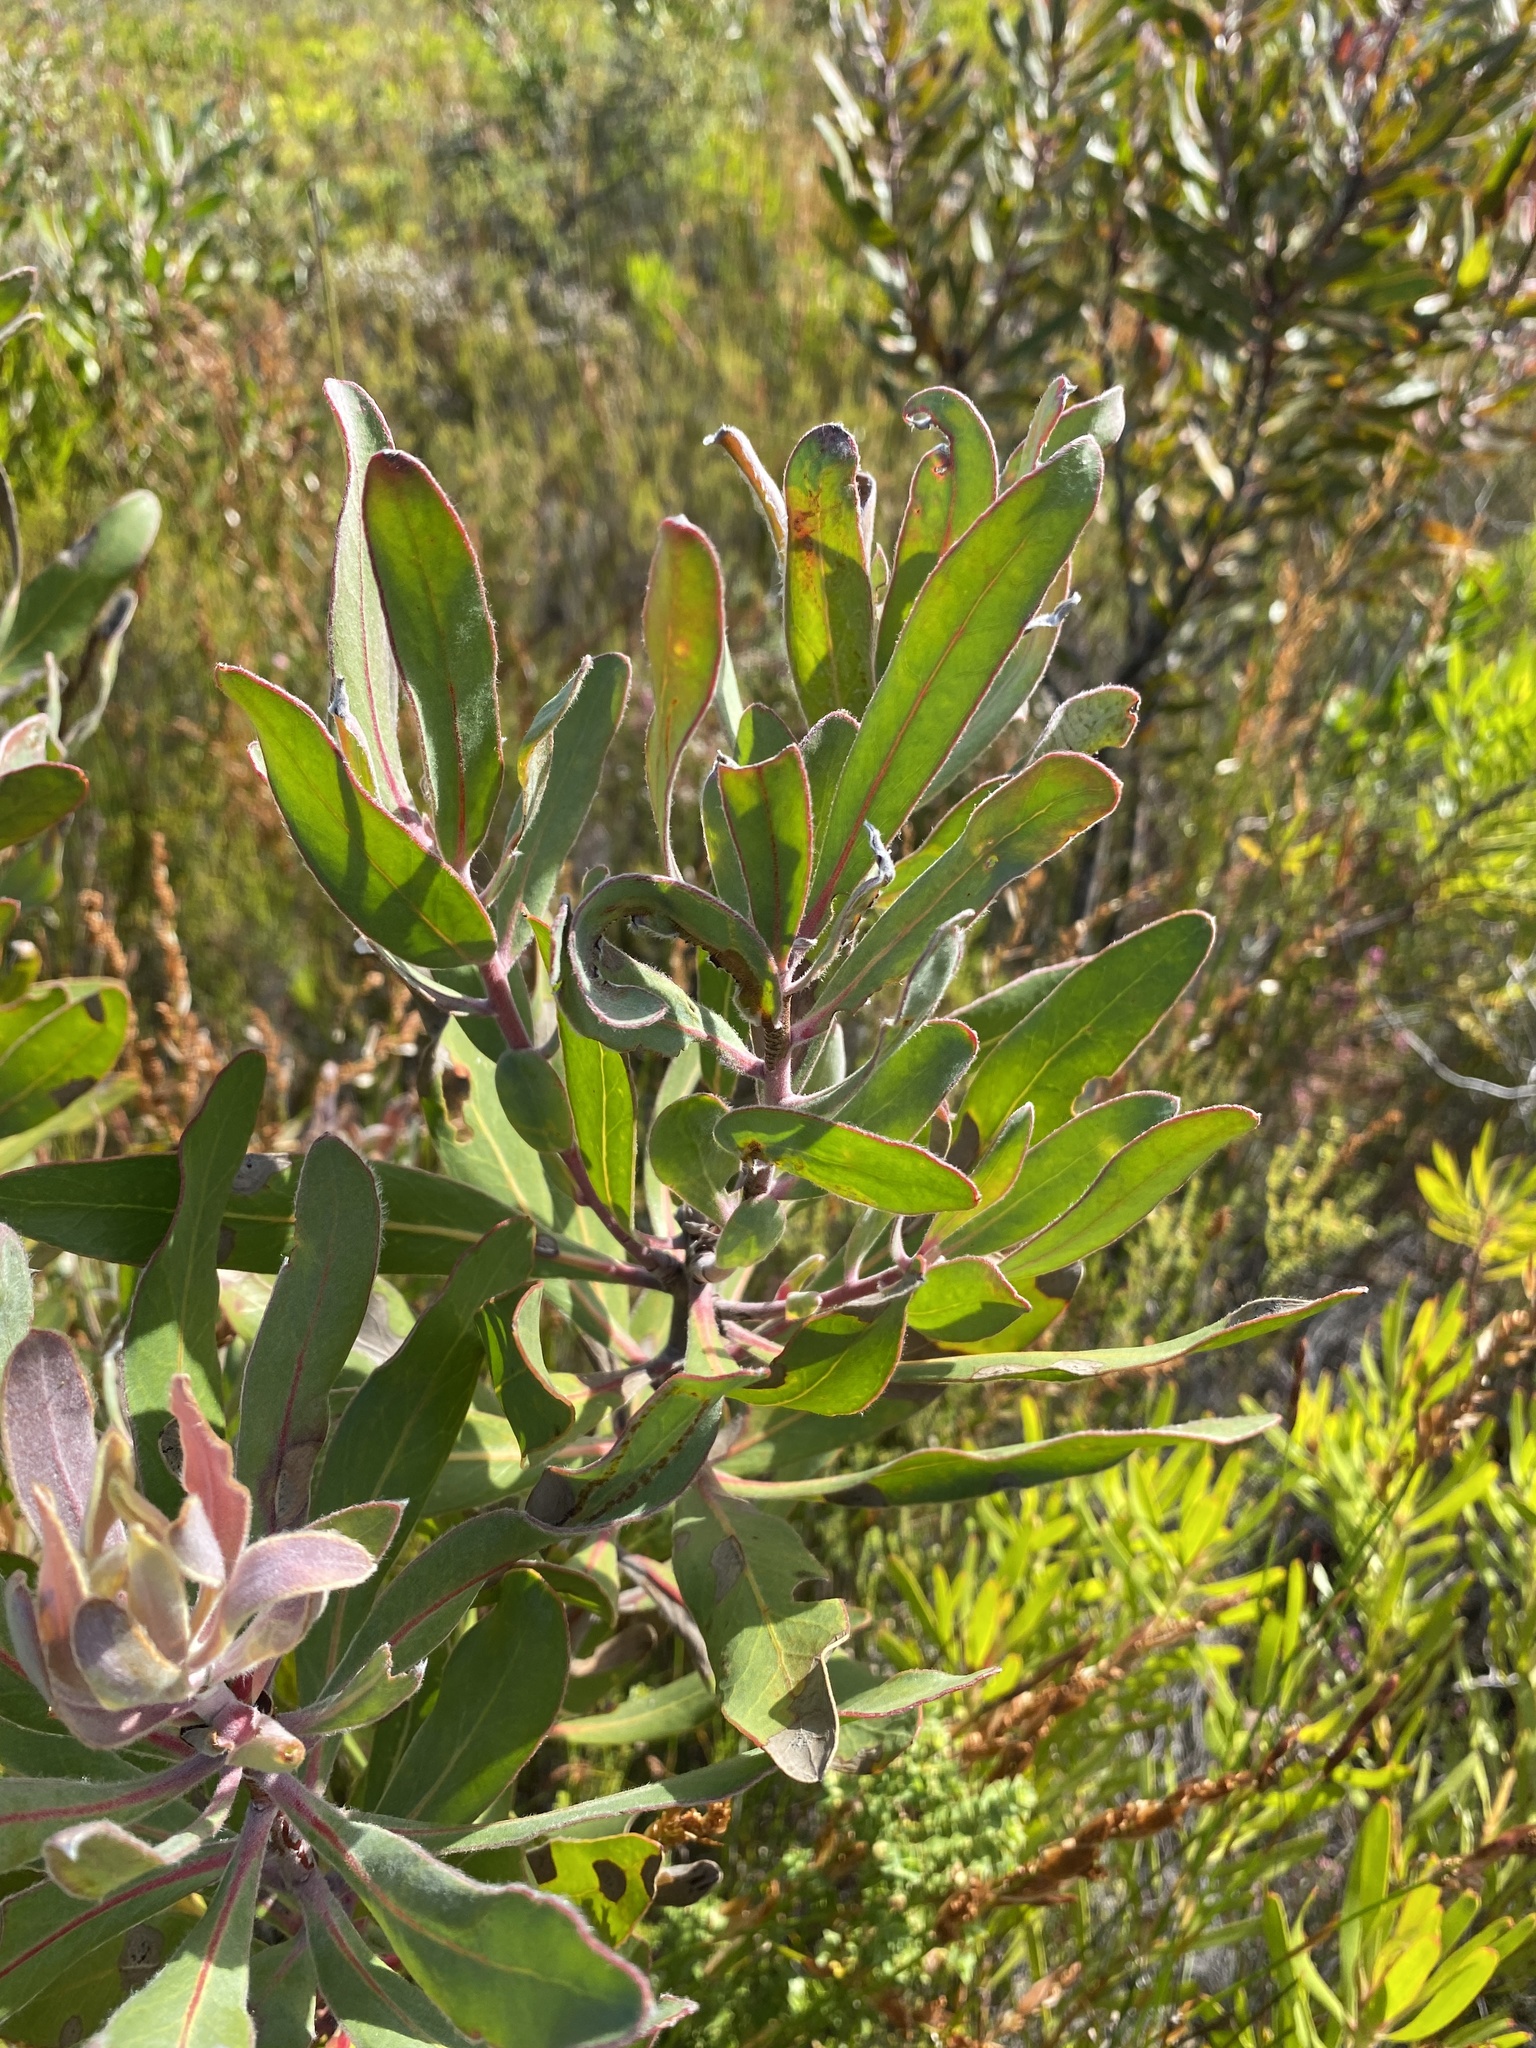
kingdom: Plantae
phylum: Tracheophyta
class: Magnoliopsida
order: Proteales
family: Proteaceae
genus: Protea
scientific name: Protea susannae
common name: Foetid-leaf sugarbush
